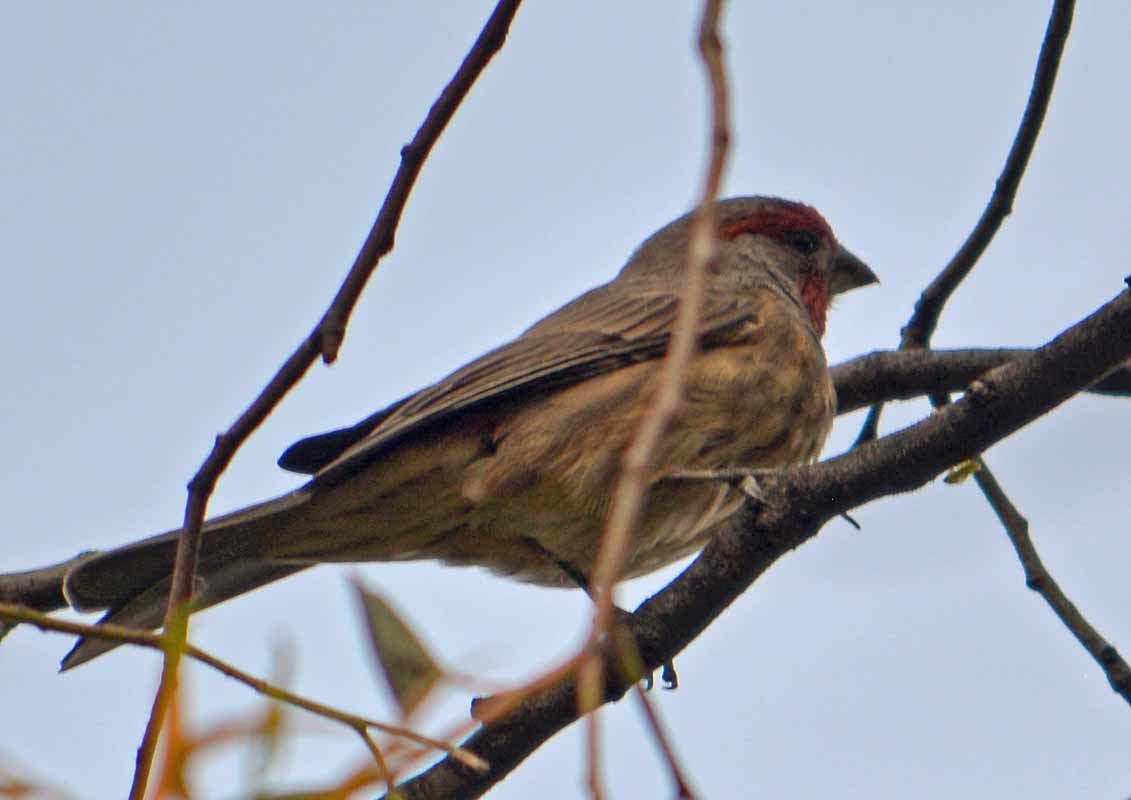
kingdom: Animalia
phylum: Chordata
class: Aves
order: Passeriformes
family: Fringillidae
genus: Haemorhous
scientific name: Haemorhous mexicanus
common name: House finch
